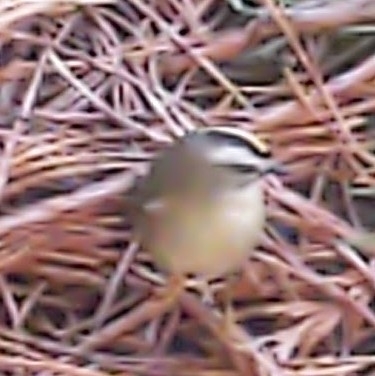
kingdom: Animalia
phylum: Chordata
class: Aves
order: Passeriformes
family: Regulidae
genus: Regulus
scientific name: Regulus satrapa
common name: Golden-crowned kinglet
